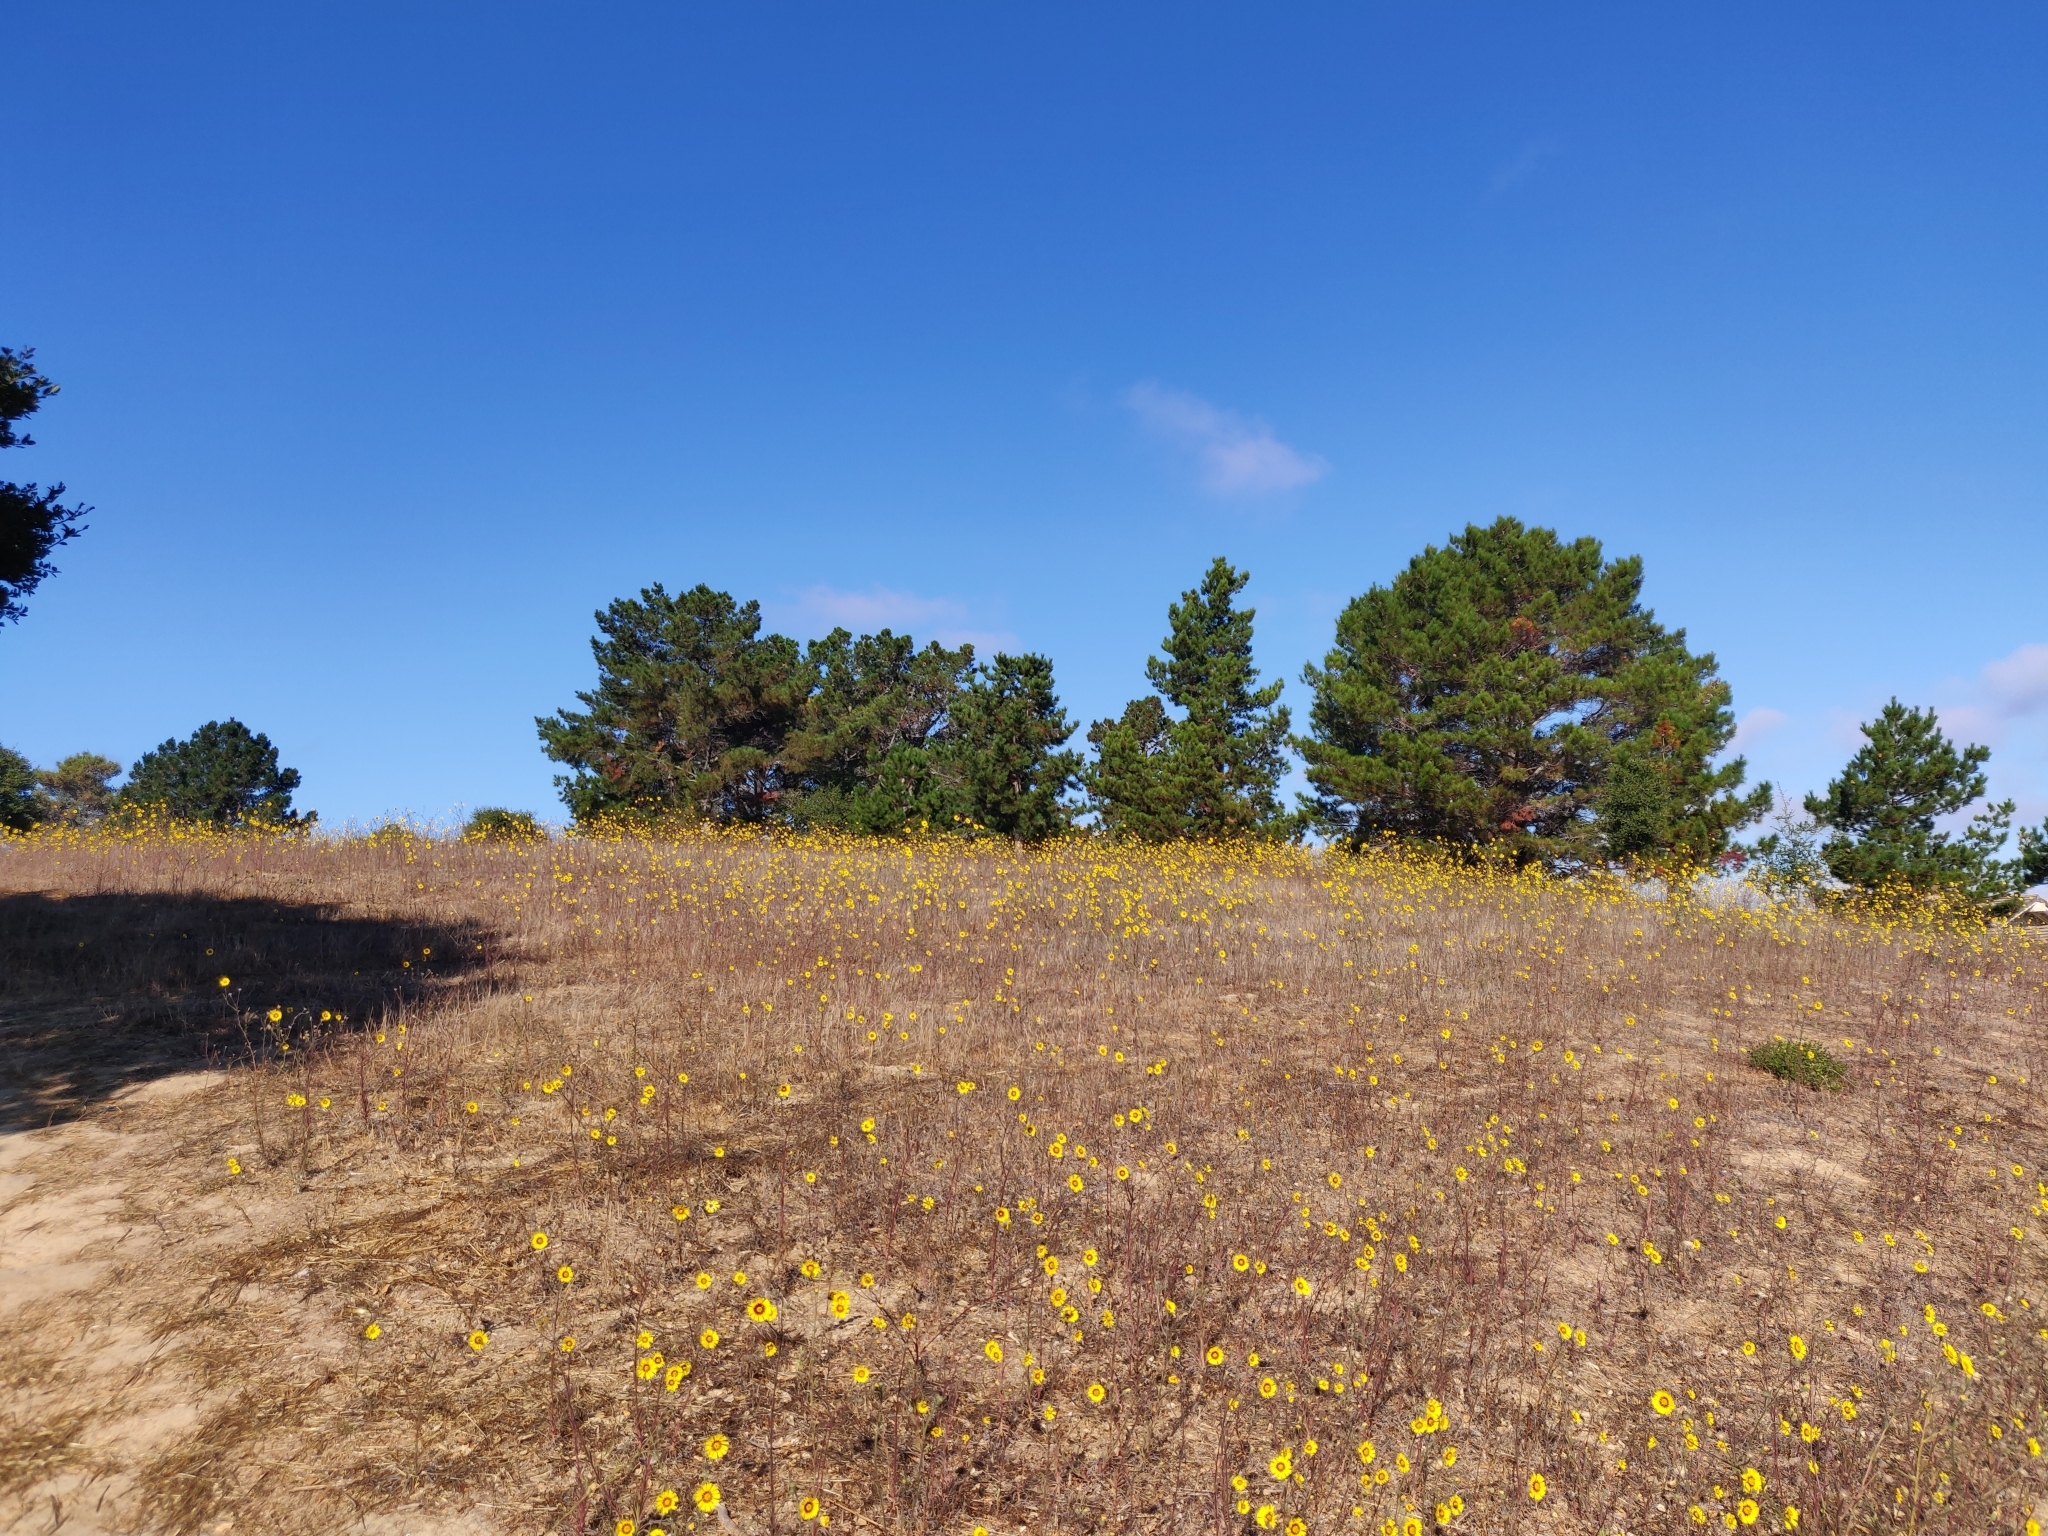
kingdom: Plantae
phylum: Tracheophyta
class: Magnoliopsida
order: Asterales
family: Asteraceae
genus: Madia
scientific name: Madia elegans
